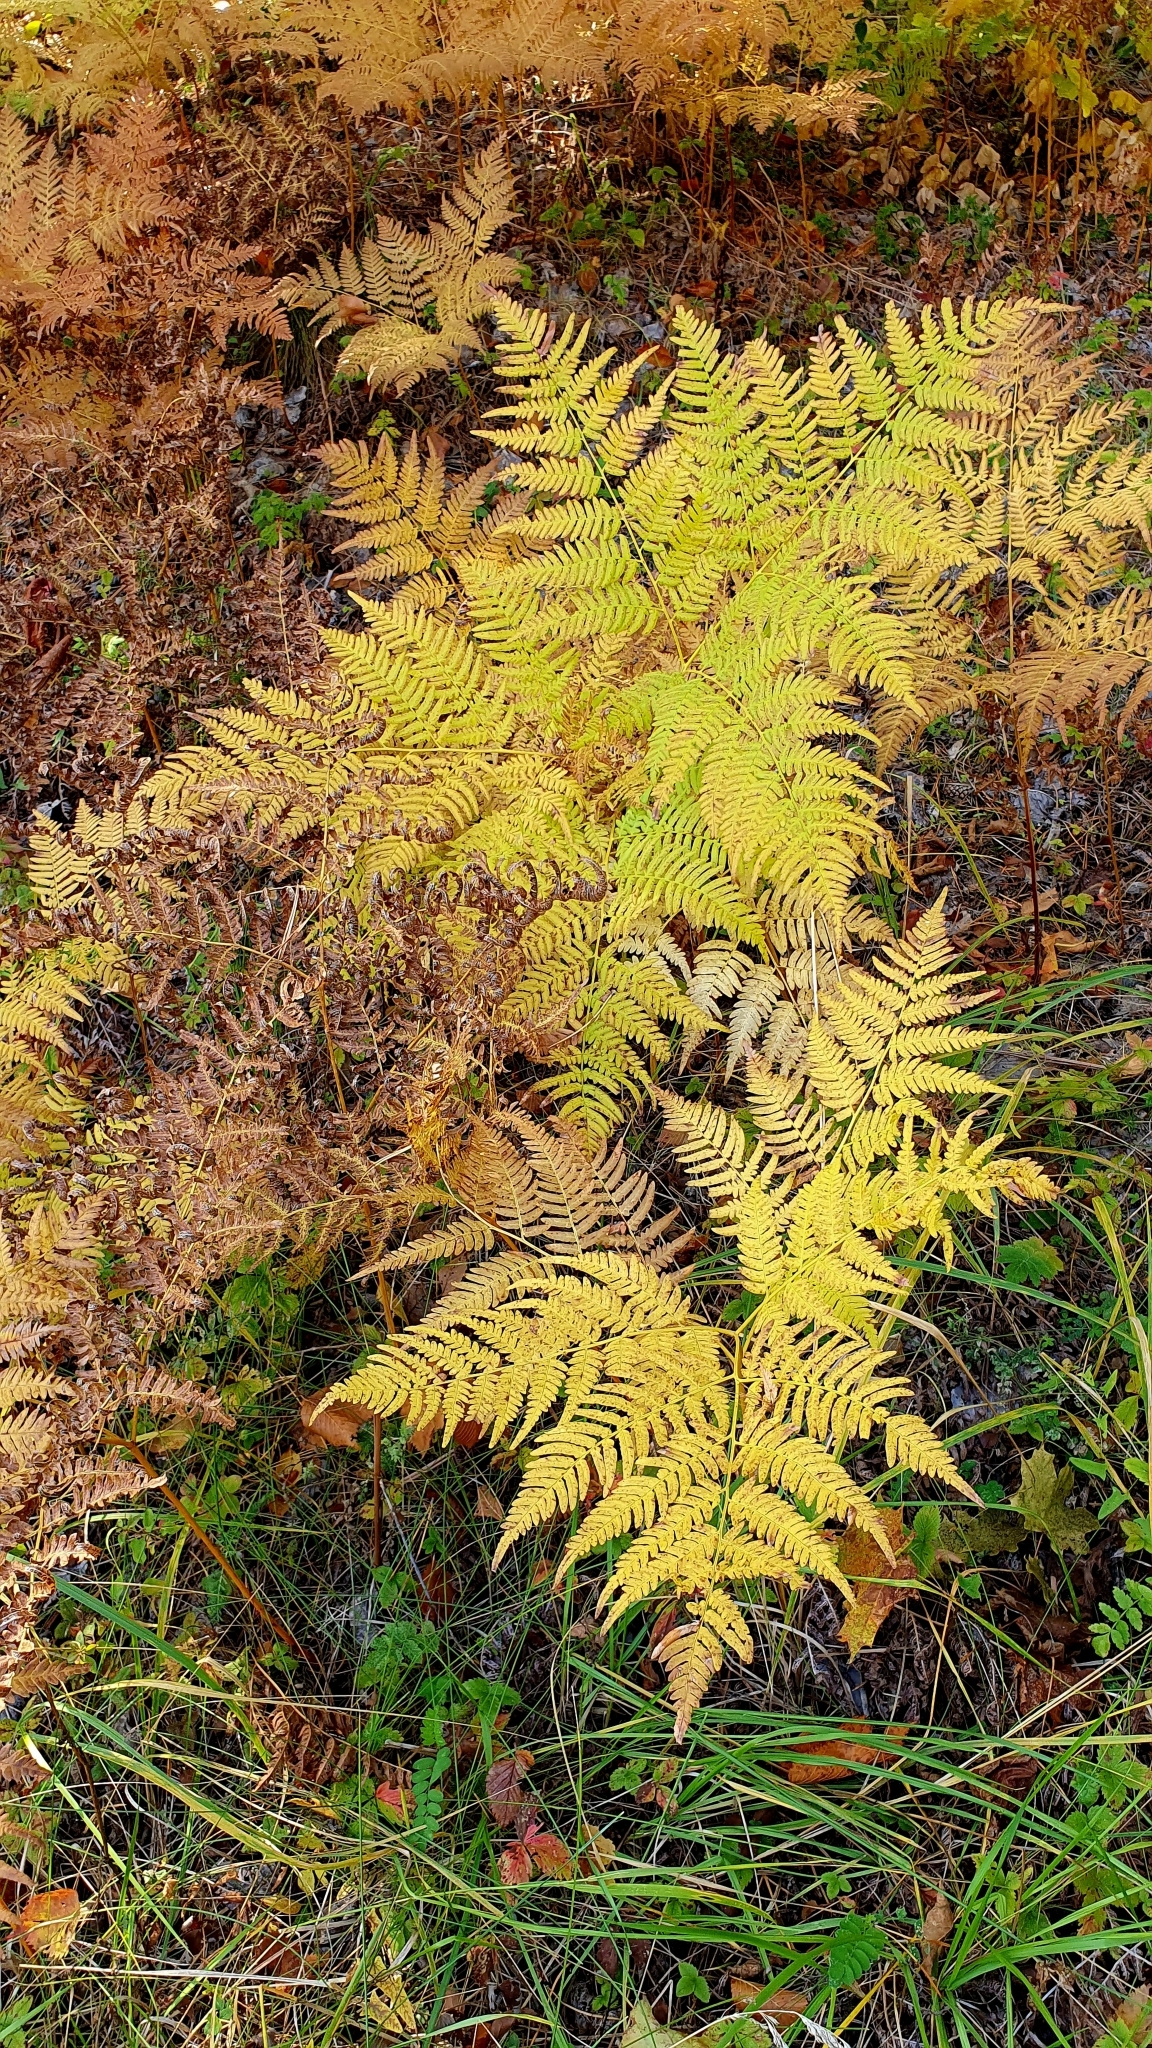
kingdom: Plantae
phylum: Tracheophyta
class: Polypodiopsida
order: Polypodiales
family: Dennstaedtiaceae
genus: Pteridium
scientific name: Pteridium aquilinum
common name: Bracken
